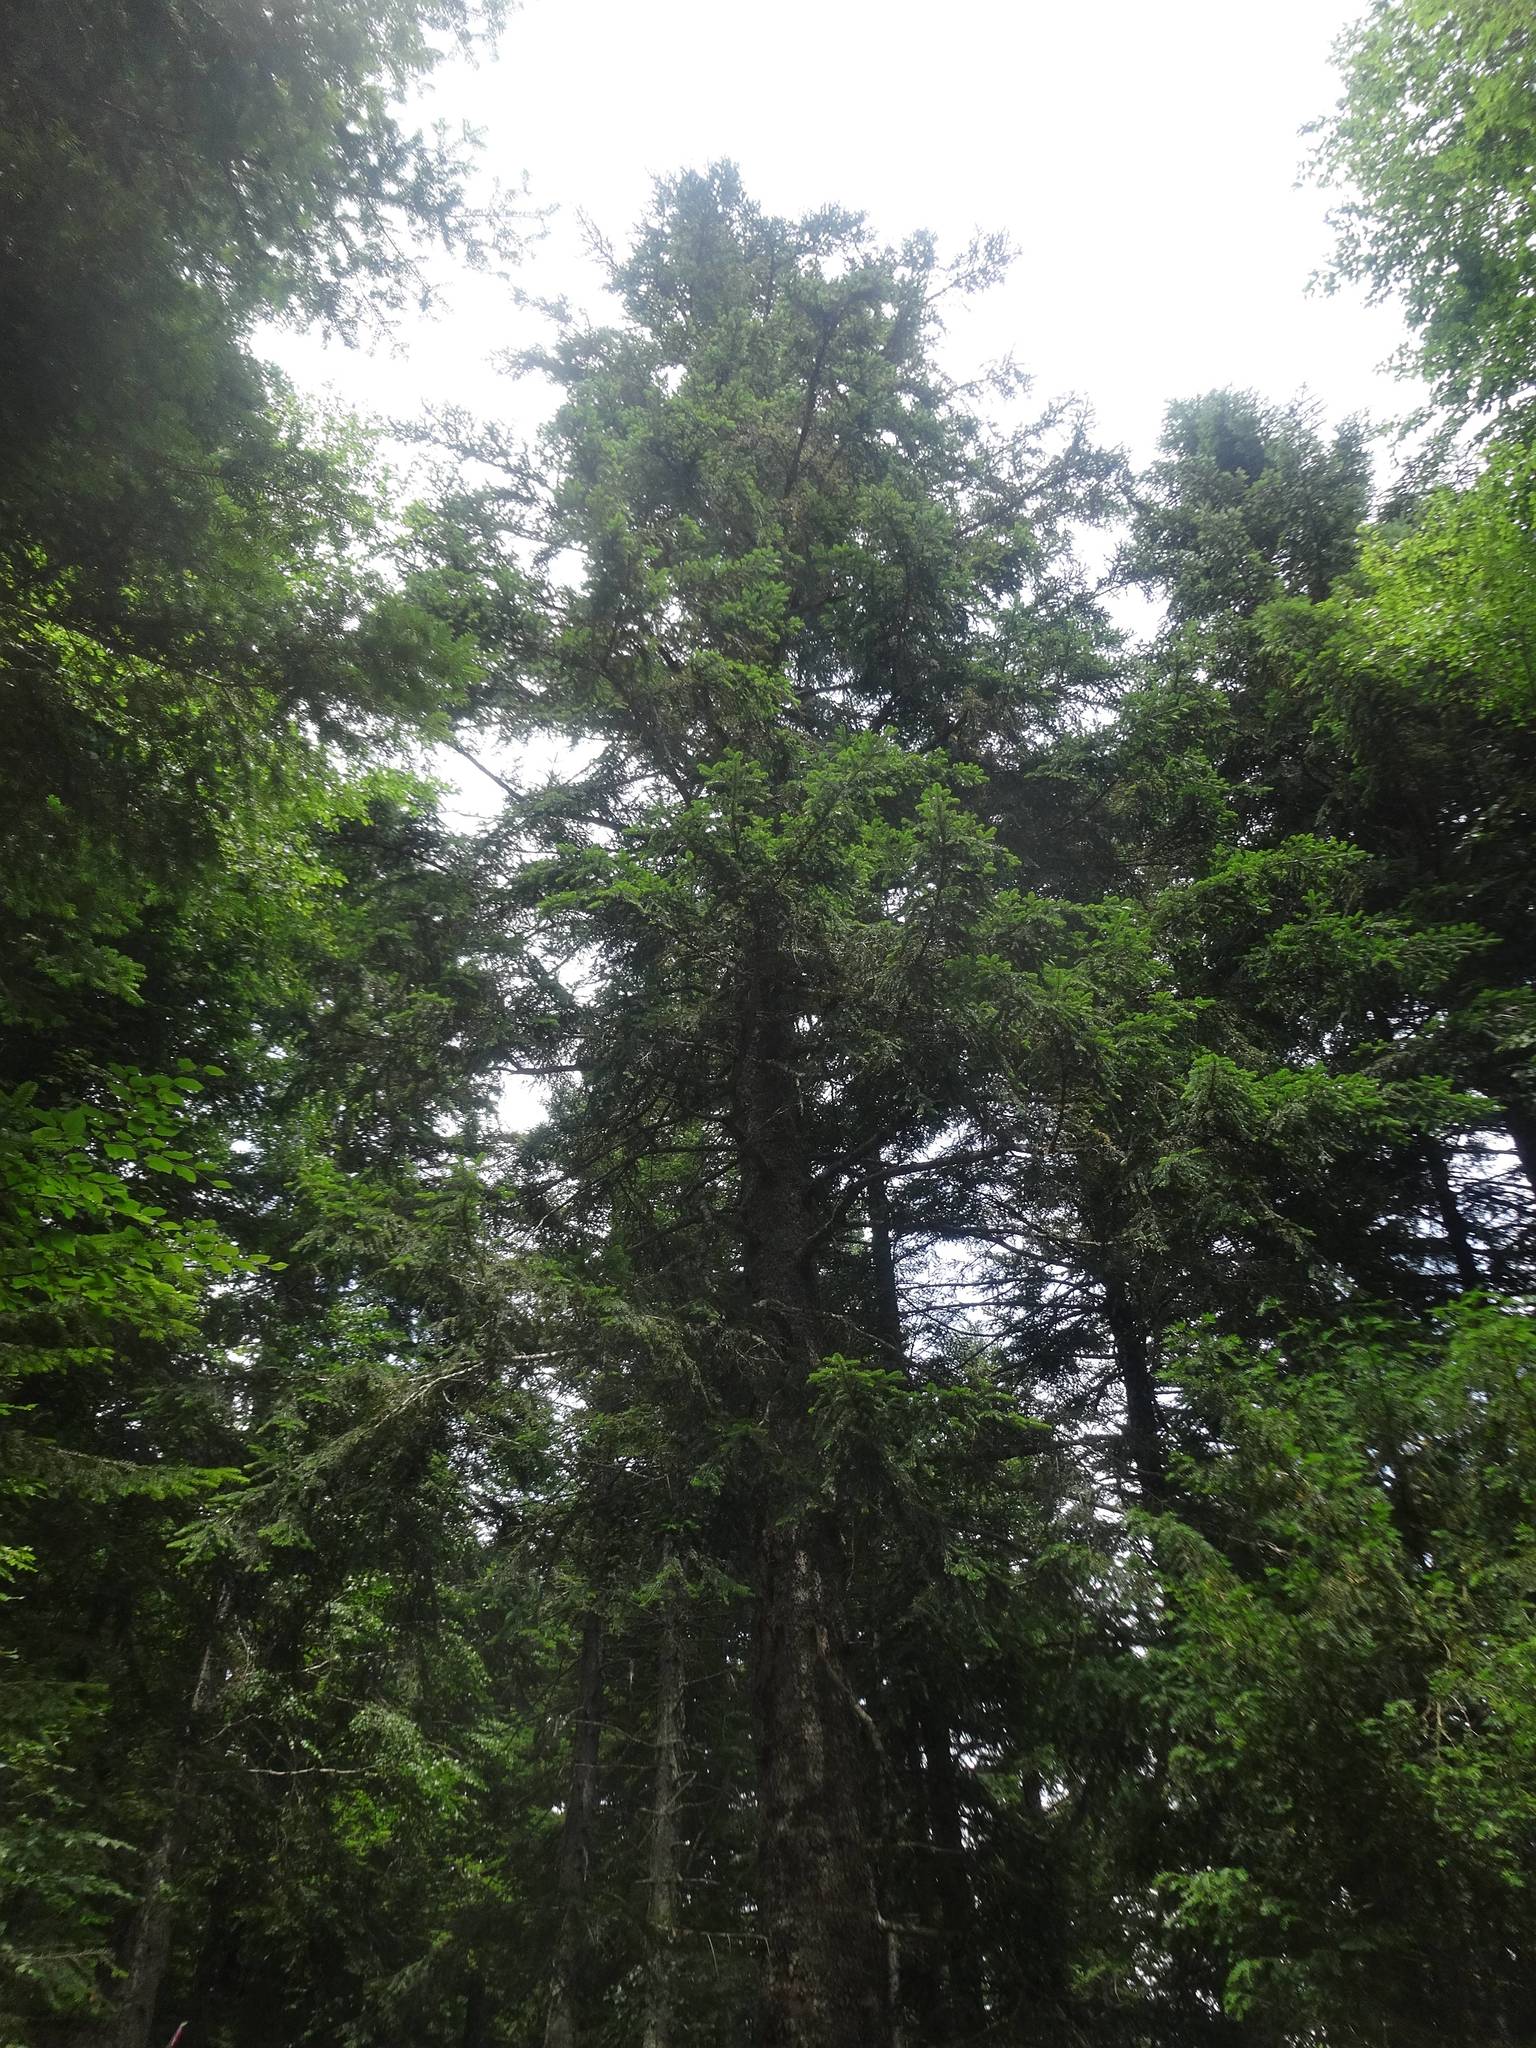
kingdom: Plantae
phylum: Tracheophyta
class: Pinopsida
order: Pinales
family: Pinaceae
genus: Abies
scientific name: Abies alba
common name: Silver fir
